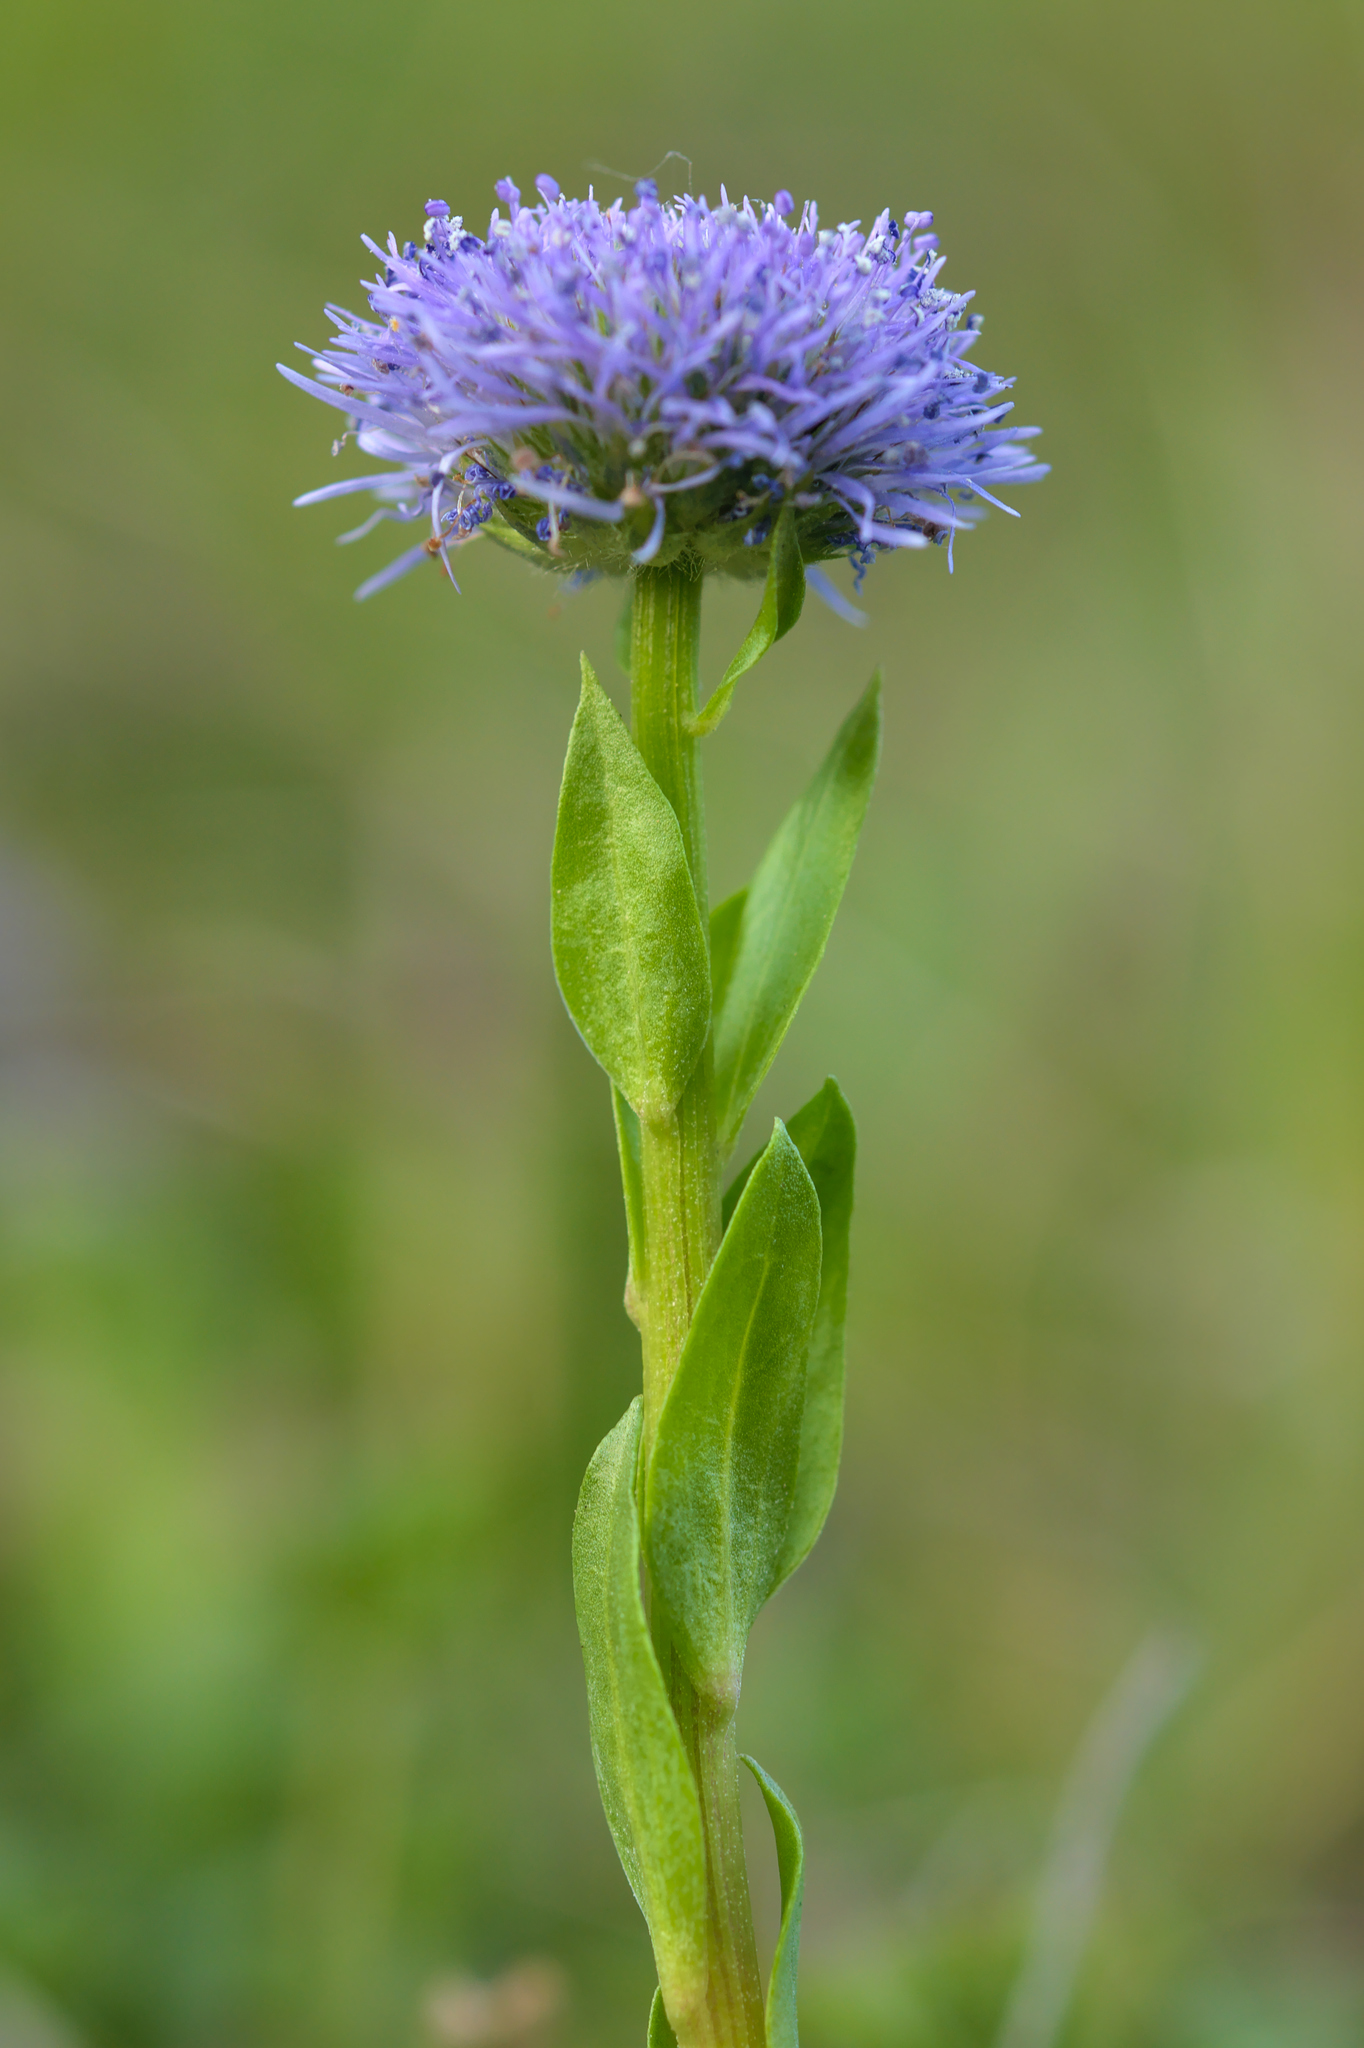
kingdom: Plantae
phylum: Tracheophyta
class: Magnoliopsida
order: Lamiales
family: Plantaginaceae
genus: Globularia
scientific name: Globularia bisnagarica
